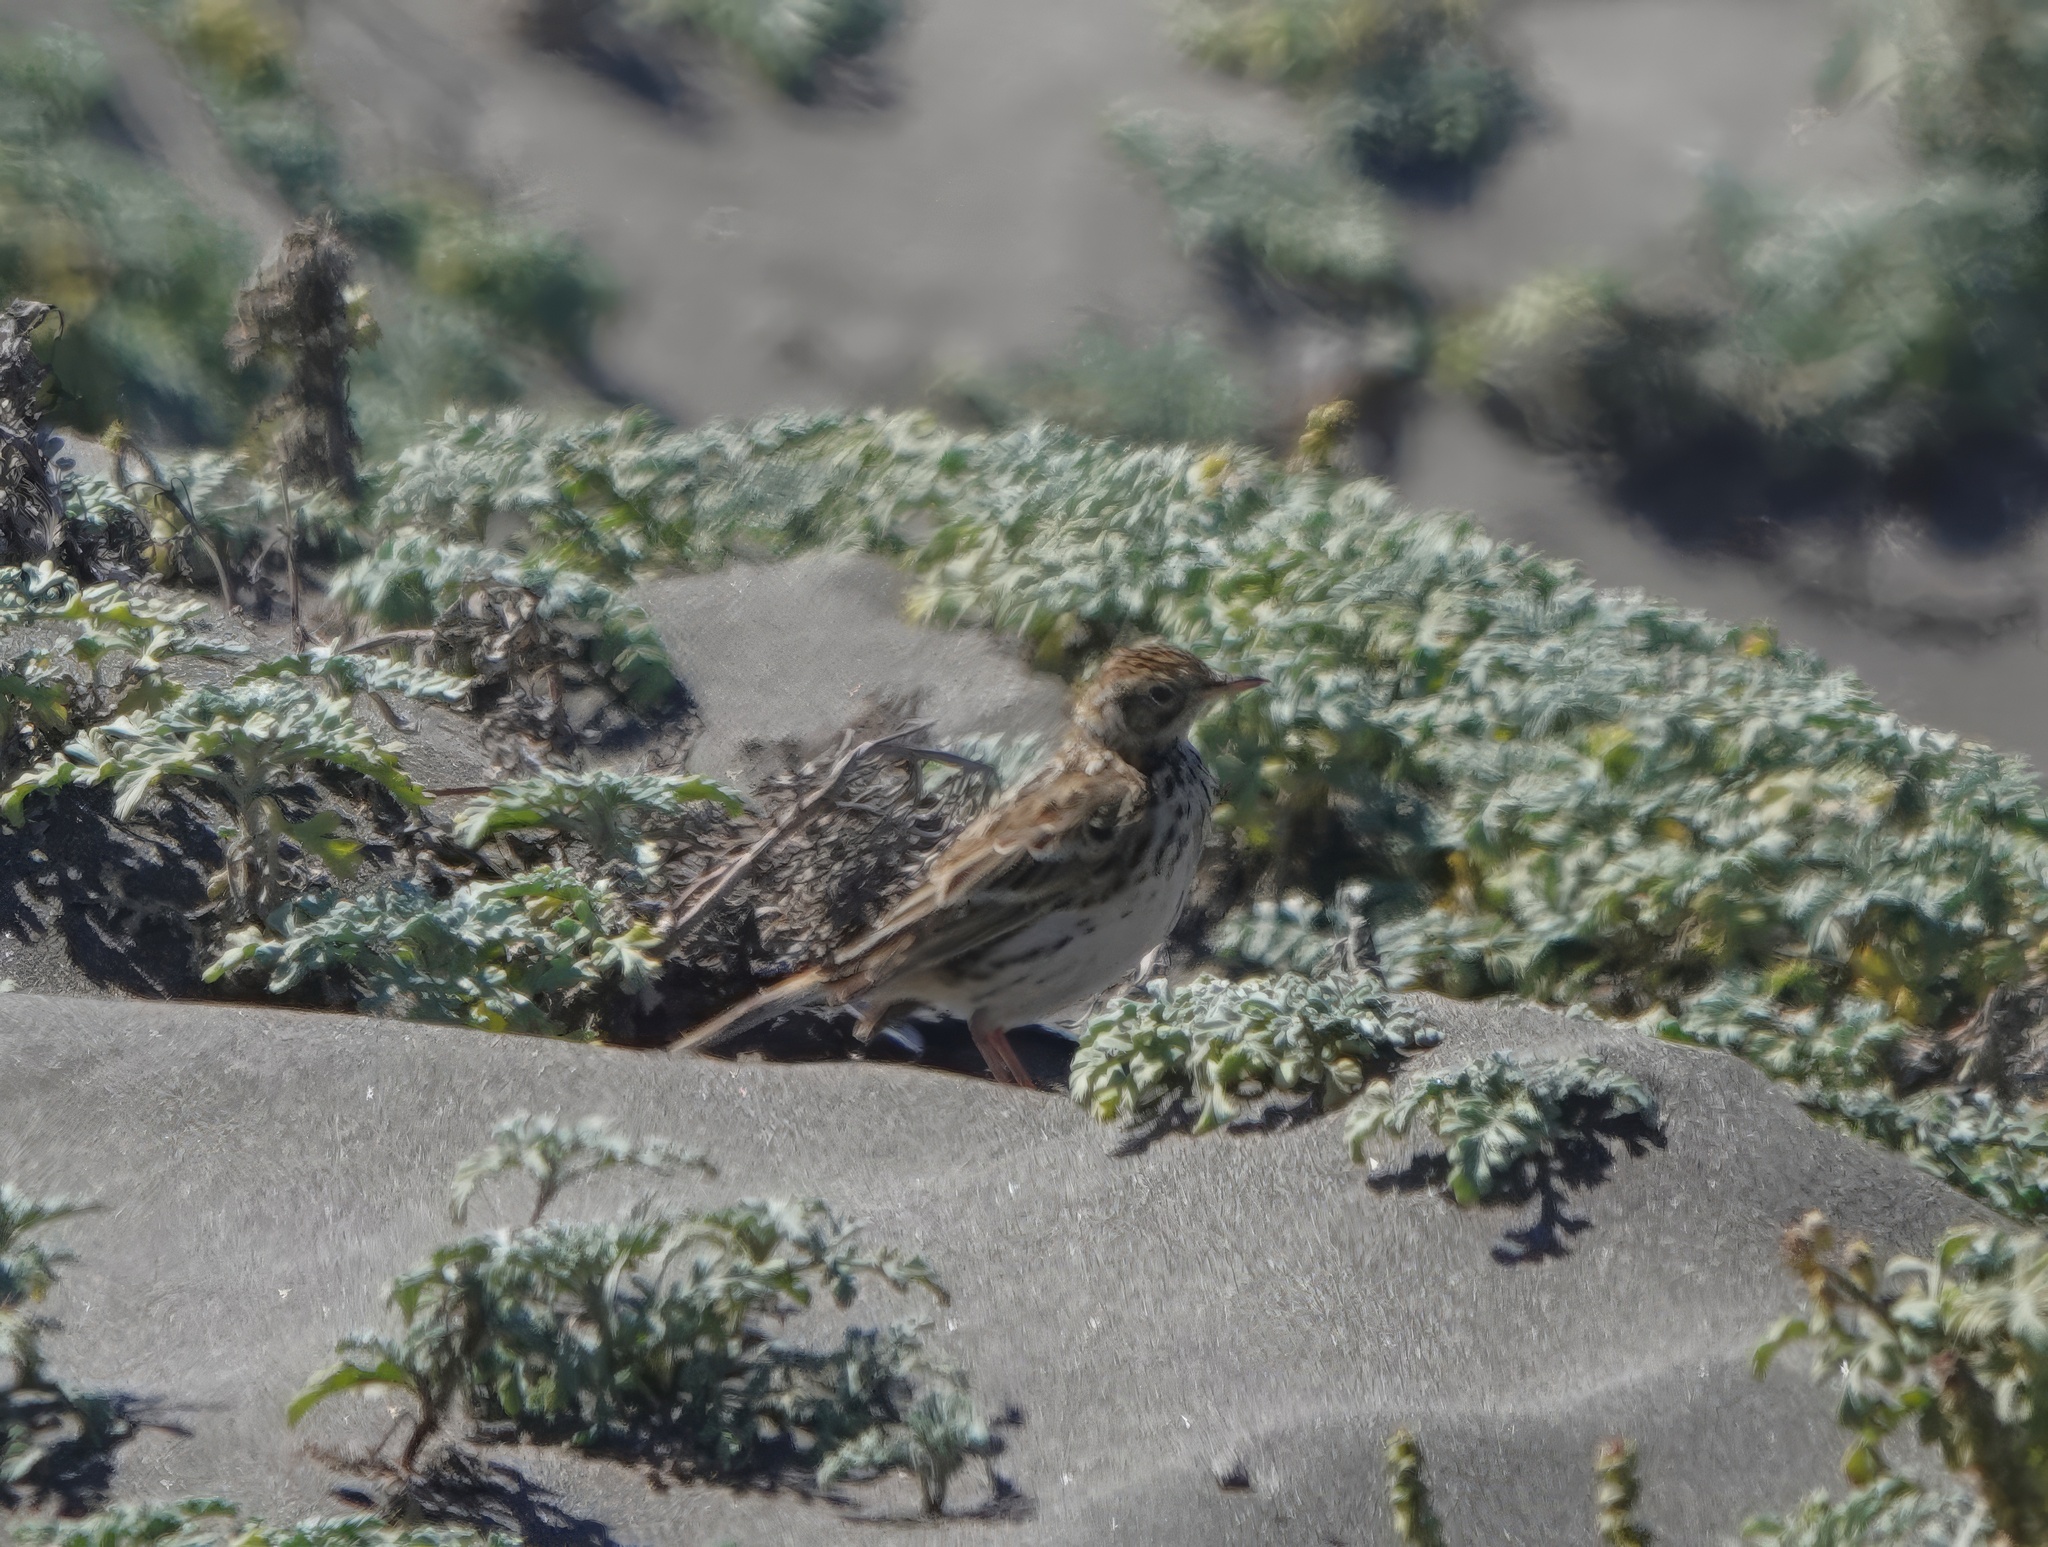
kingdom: Animalia
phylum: Chordata
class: Aves
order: Passeriformes
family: Motacillidae
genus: Anthus
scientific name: Anthus correndera
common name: Correndera pipit
